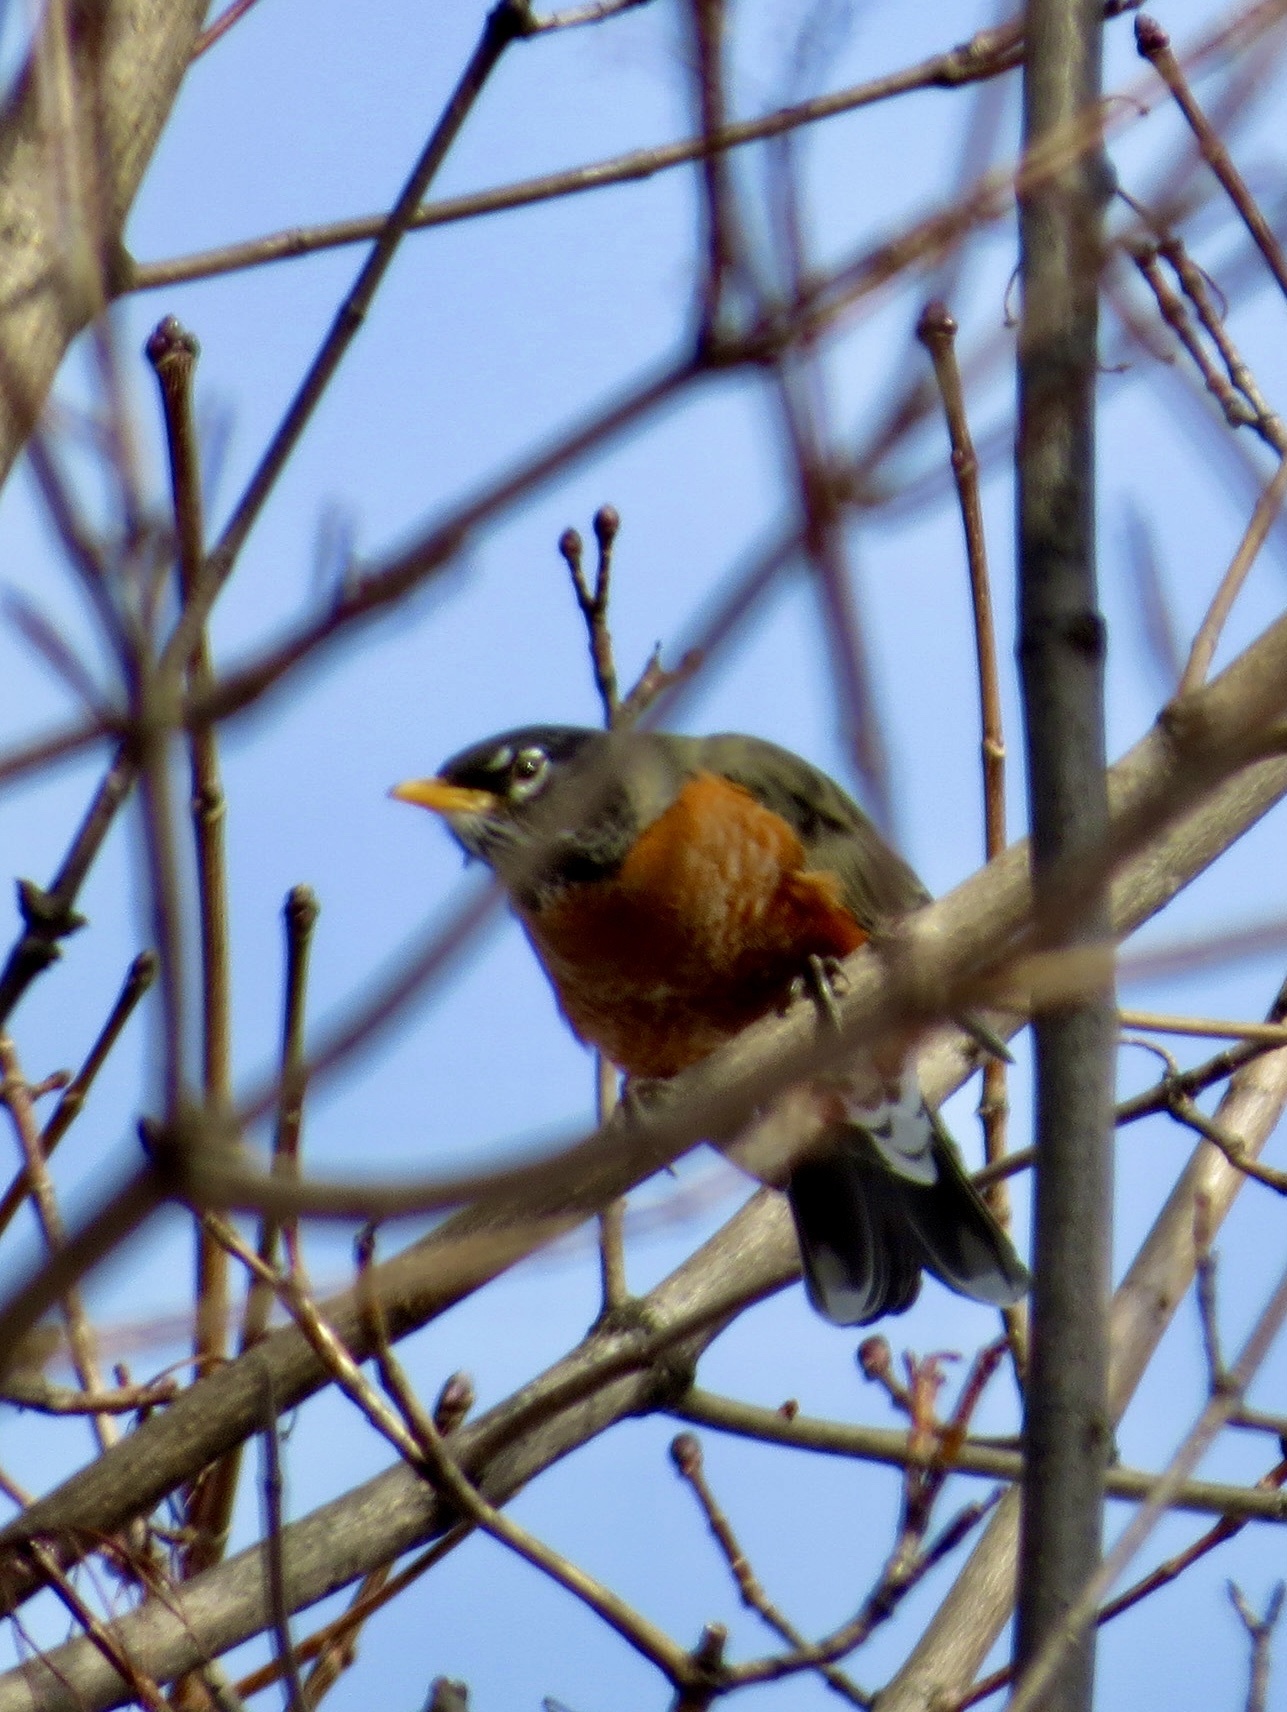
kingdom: Animalia
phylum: Chordata
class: Aves
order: Passeriformes
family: Turdidae
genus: Turdus
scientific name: Turdus migratorius
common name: American robin
